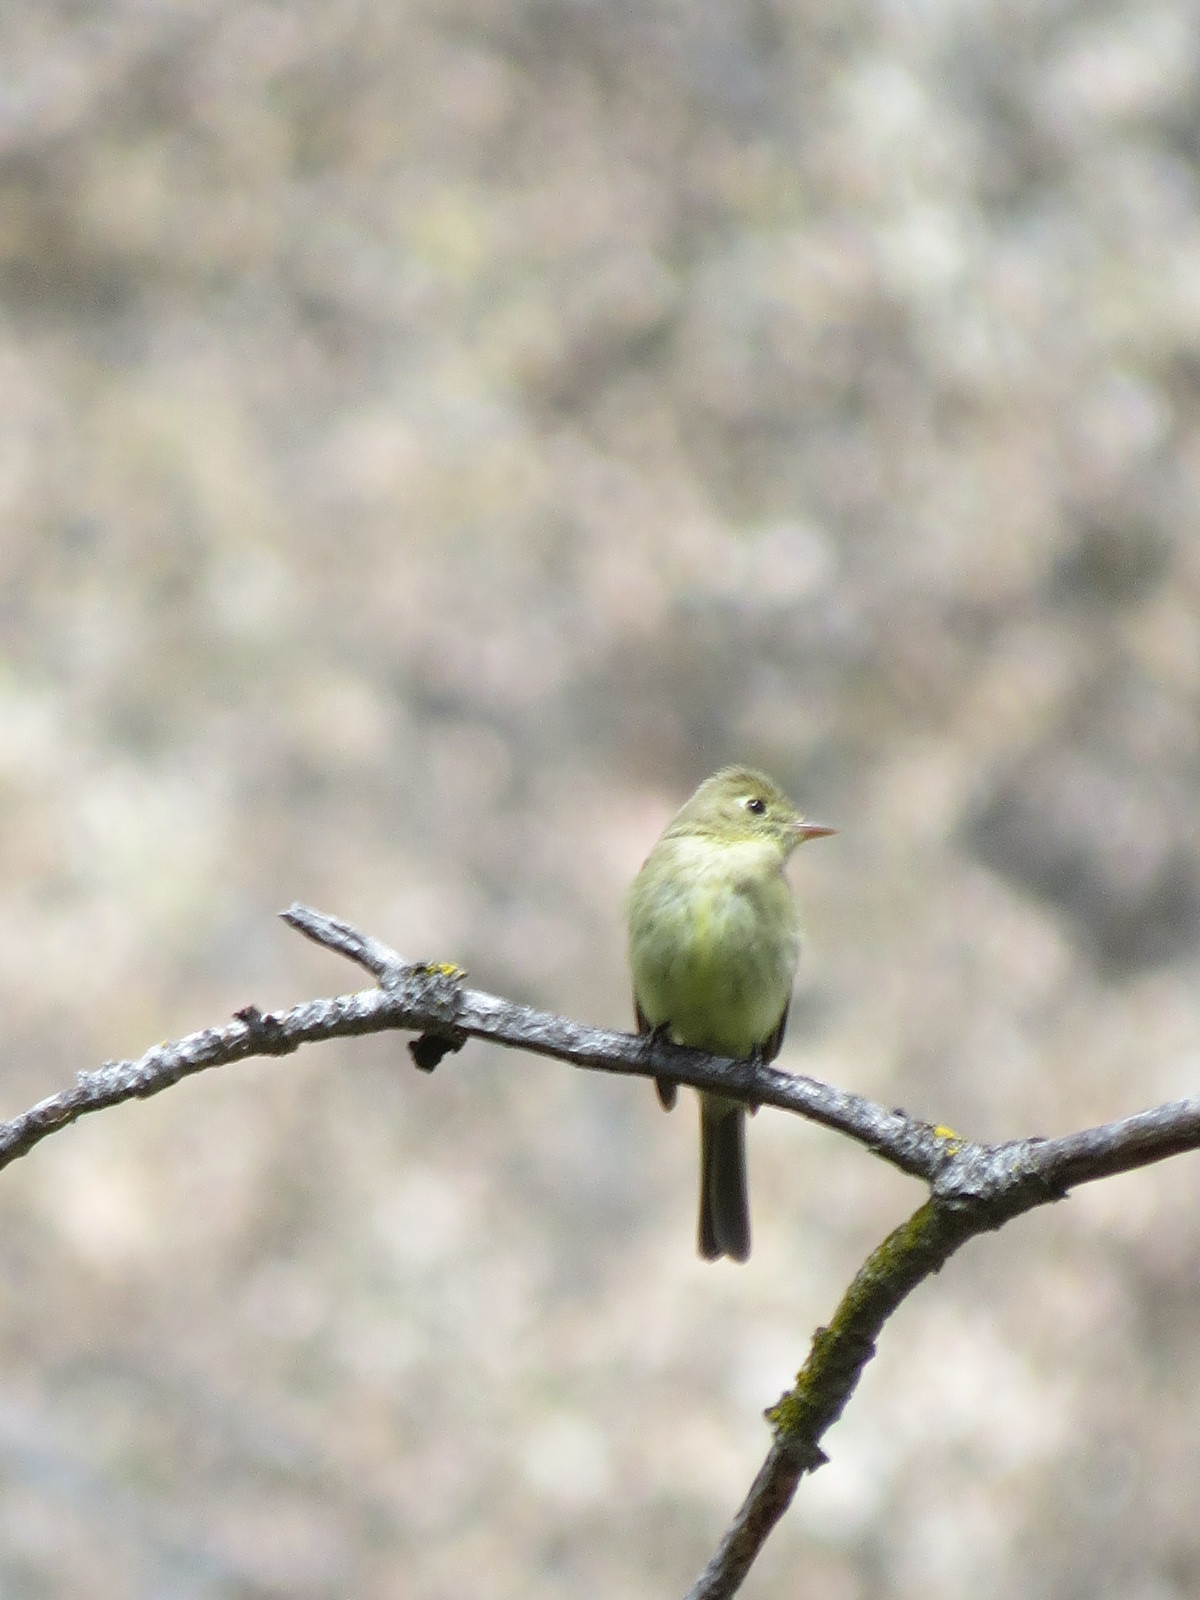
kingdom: Animalia
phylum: Chordata
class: Aves
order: Passeriformes
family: Tyrannidae
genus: Empidonax
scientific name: Empidonax difficilis
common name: Pacific-slope flycatcher
